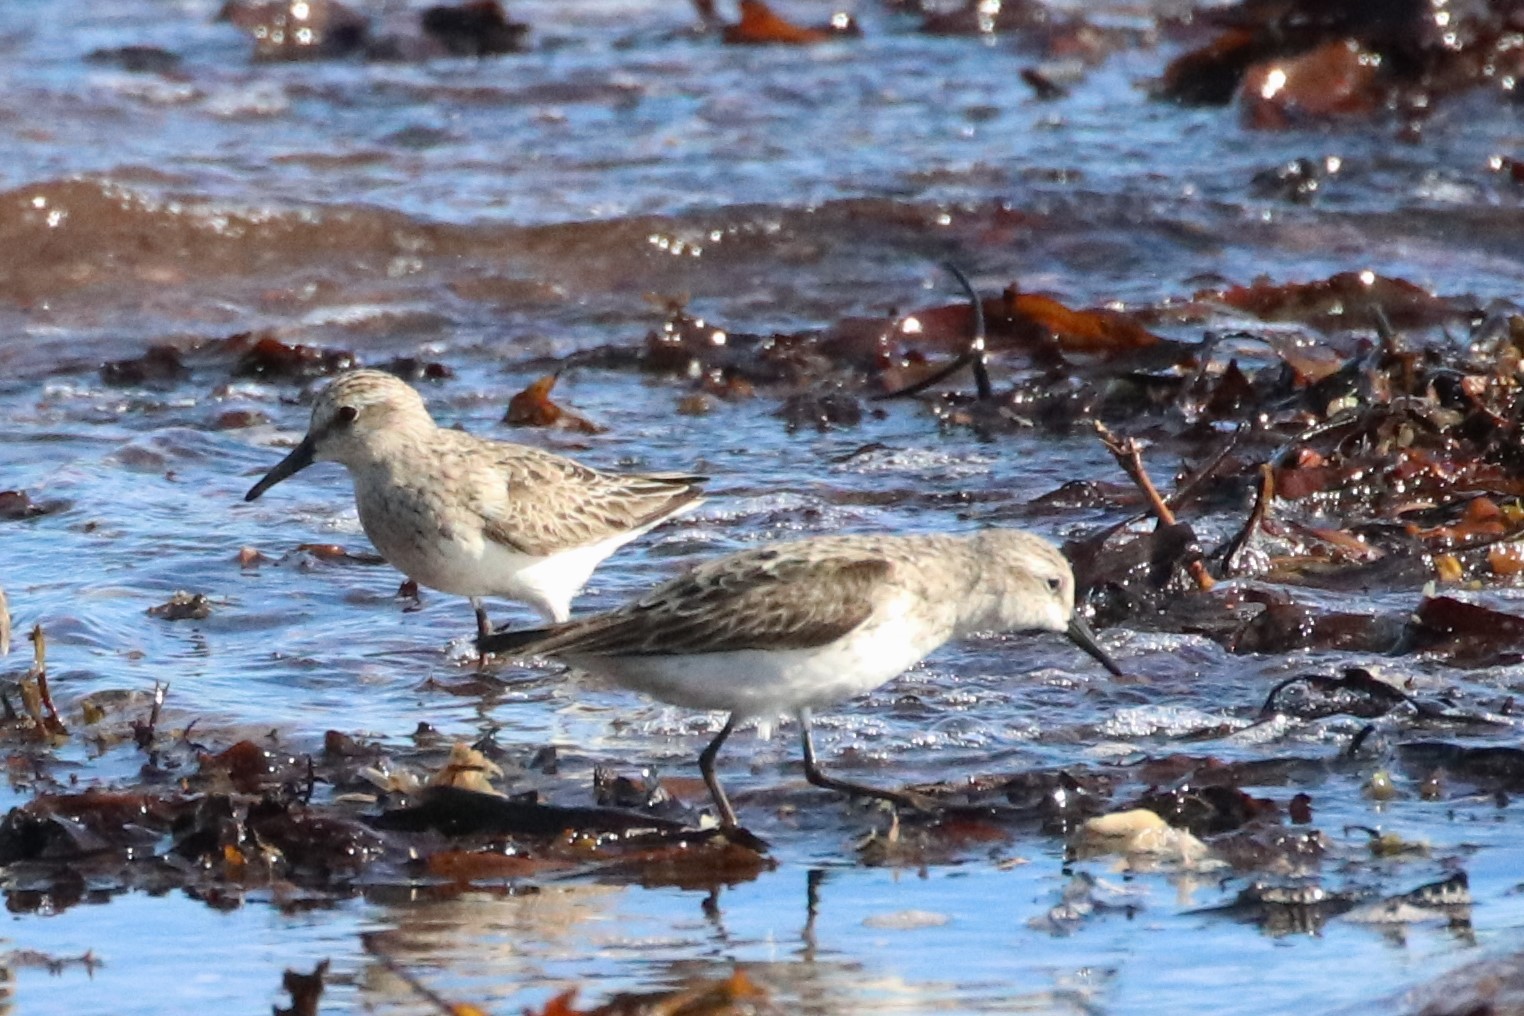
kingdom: Animalia
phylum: Chordata
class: Aves
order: Charadriiformes
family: Scolopacidae
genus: Calidris
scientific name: Calidris pusilla
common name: Semipalmated sandpiper
